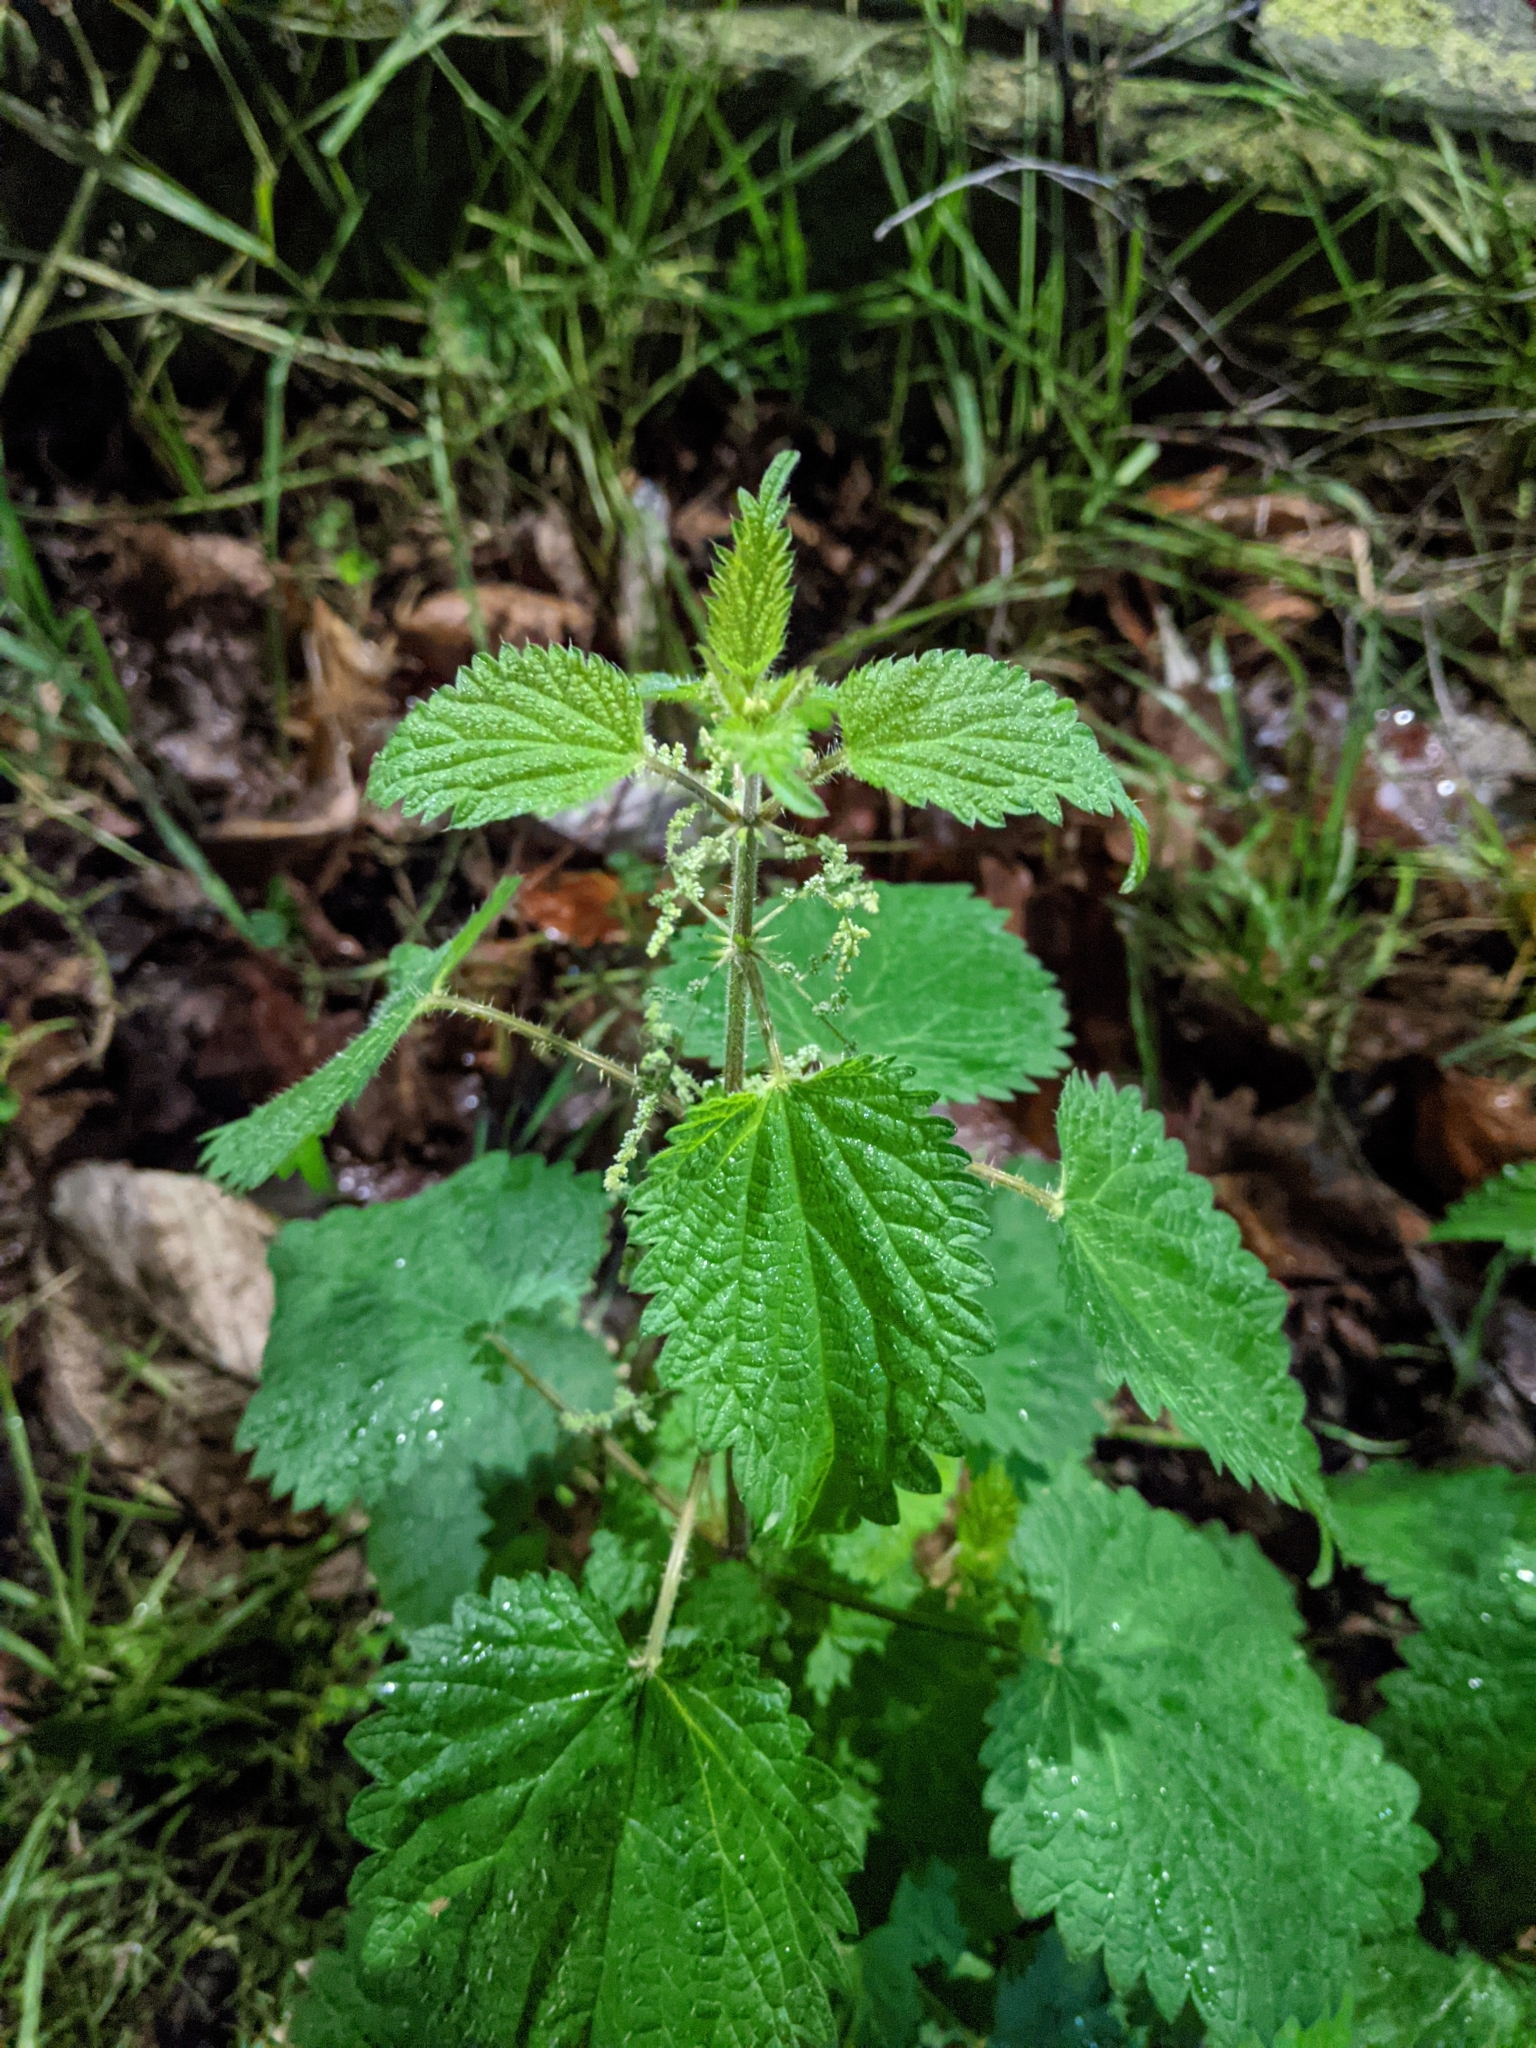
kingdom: Plantae
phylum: Tracheophyta
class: Magnoliopsida
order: Rosales
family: Urticaceae
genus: Urtica
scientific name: Urtica dioica
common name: Common nettle
